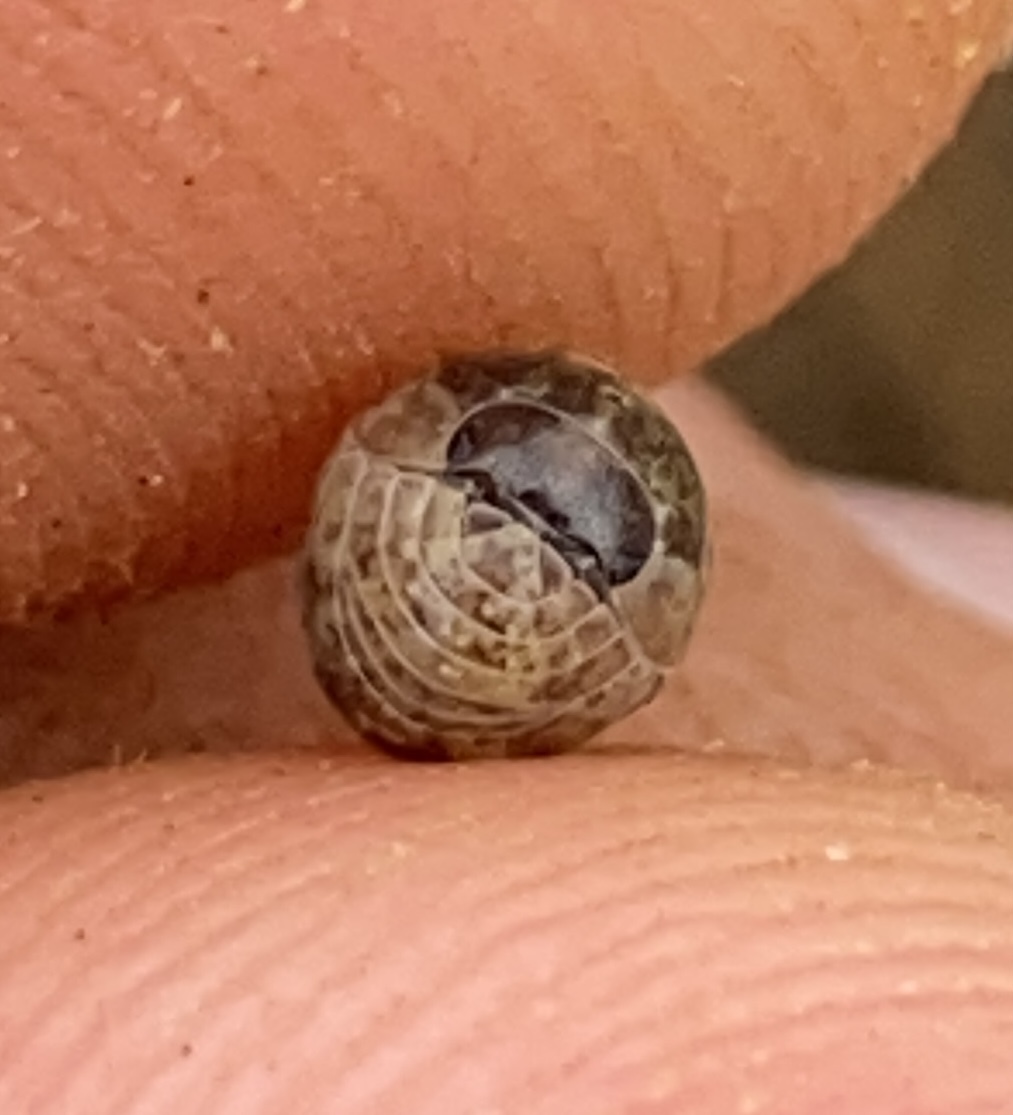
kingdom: Animalia
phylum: Arthropoda
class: Malacostraca
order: Isopoda
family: Armadillidiidae
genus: Armadillidium
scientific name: Armadillidium vulgare
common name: Common pill woodlouse
